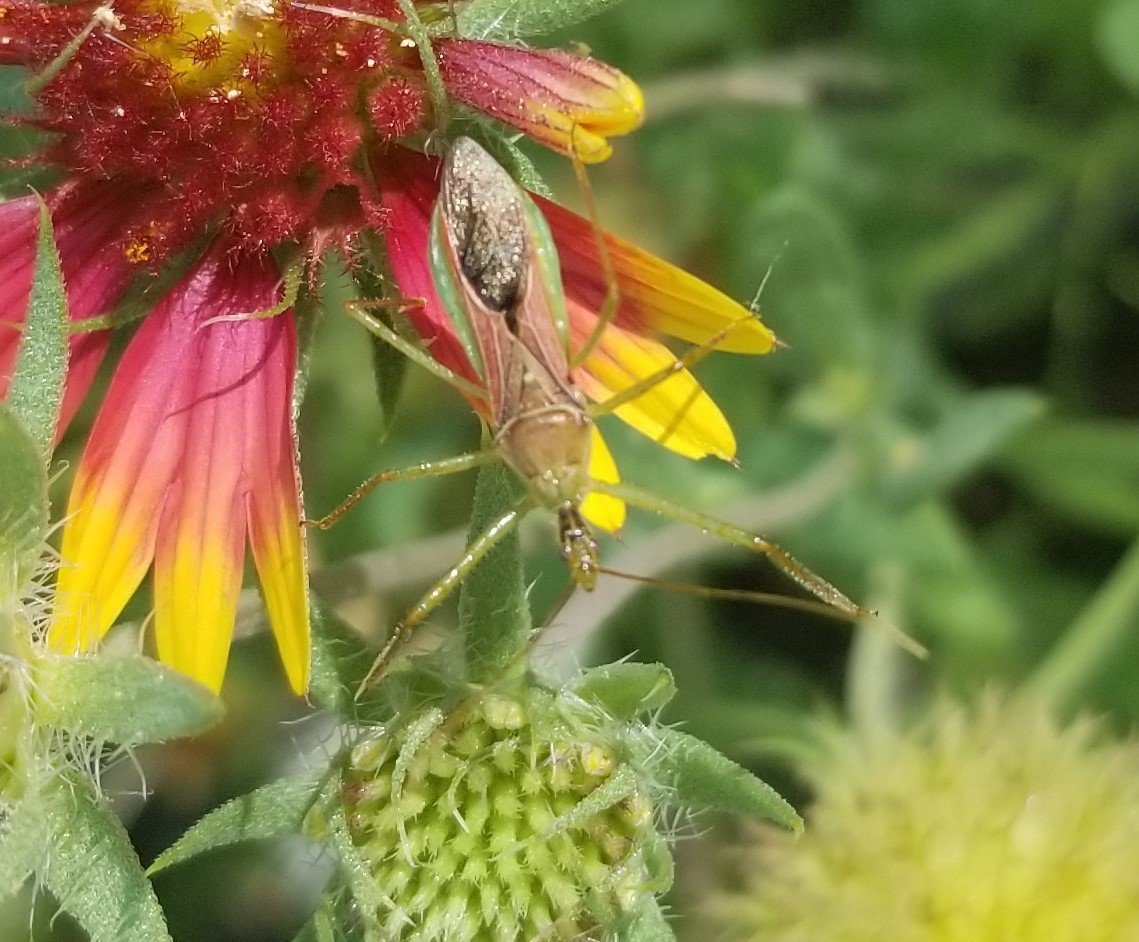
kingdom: Animalia
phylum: Arthropoda
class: Insecta
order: Hemiptera
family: Reduviidae
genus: Zelus
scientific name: Zelus renardii
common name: Assassin bug
